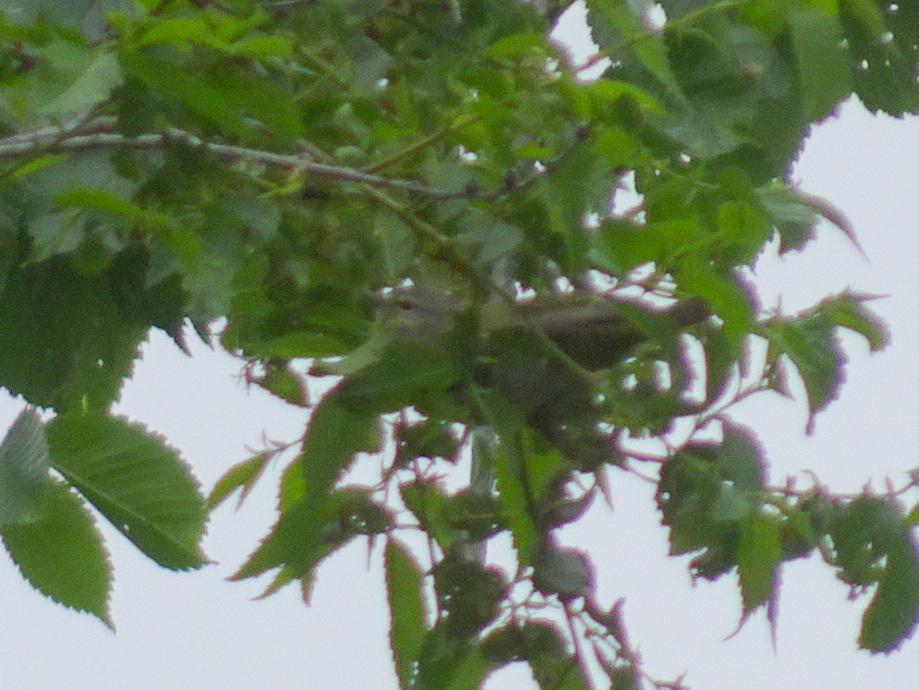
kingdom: Animalia
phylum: Chordata
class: Aves
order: Passeriformes
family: Parulidae
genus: Leiothlypis
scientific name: Leiothlypis peregrina
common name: Tennessee warbler
